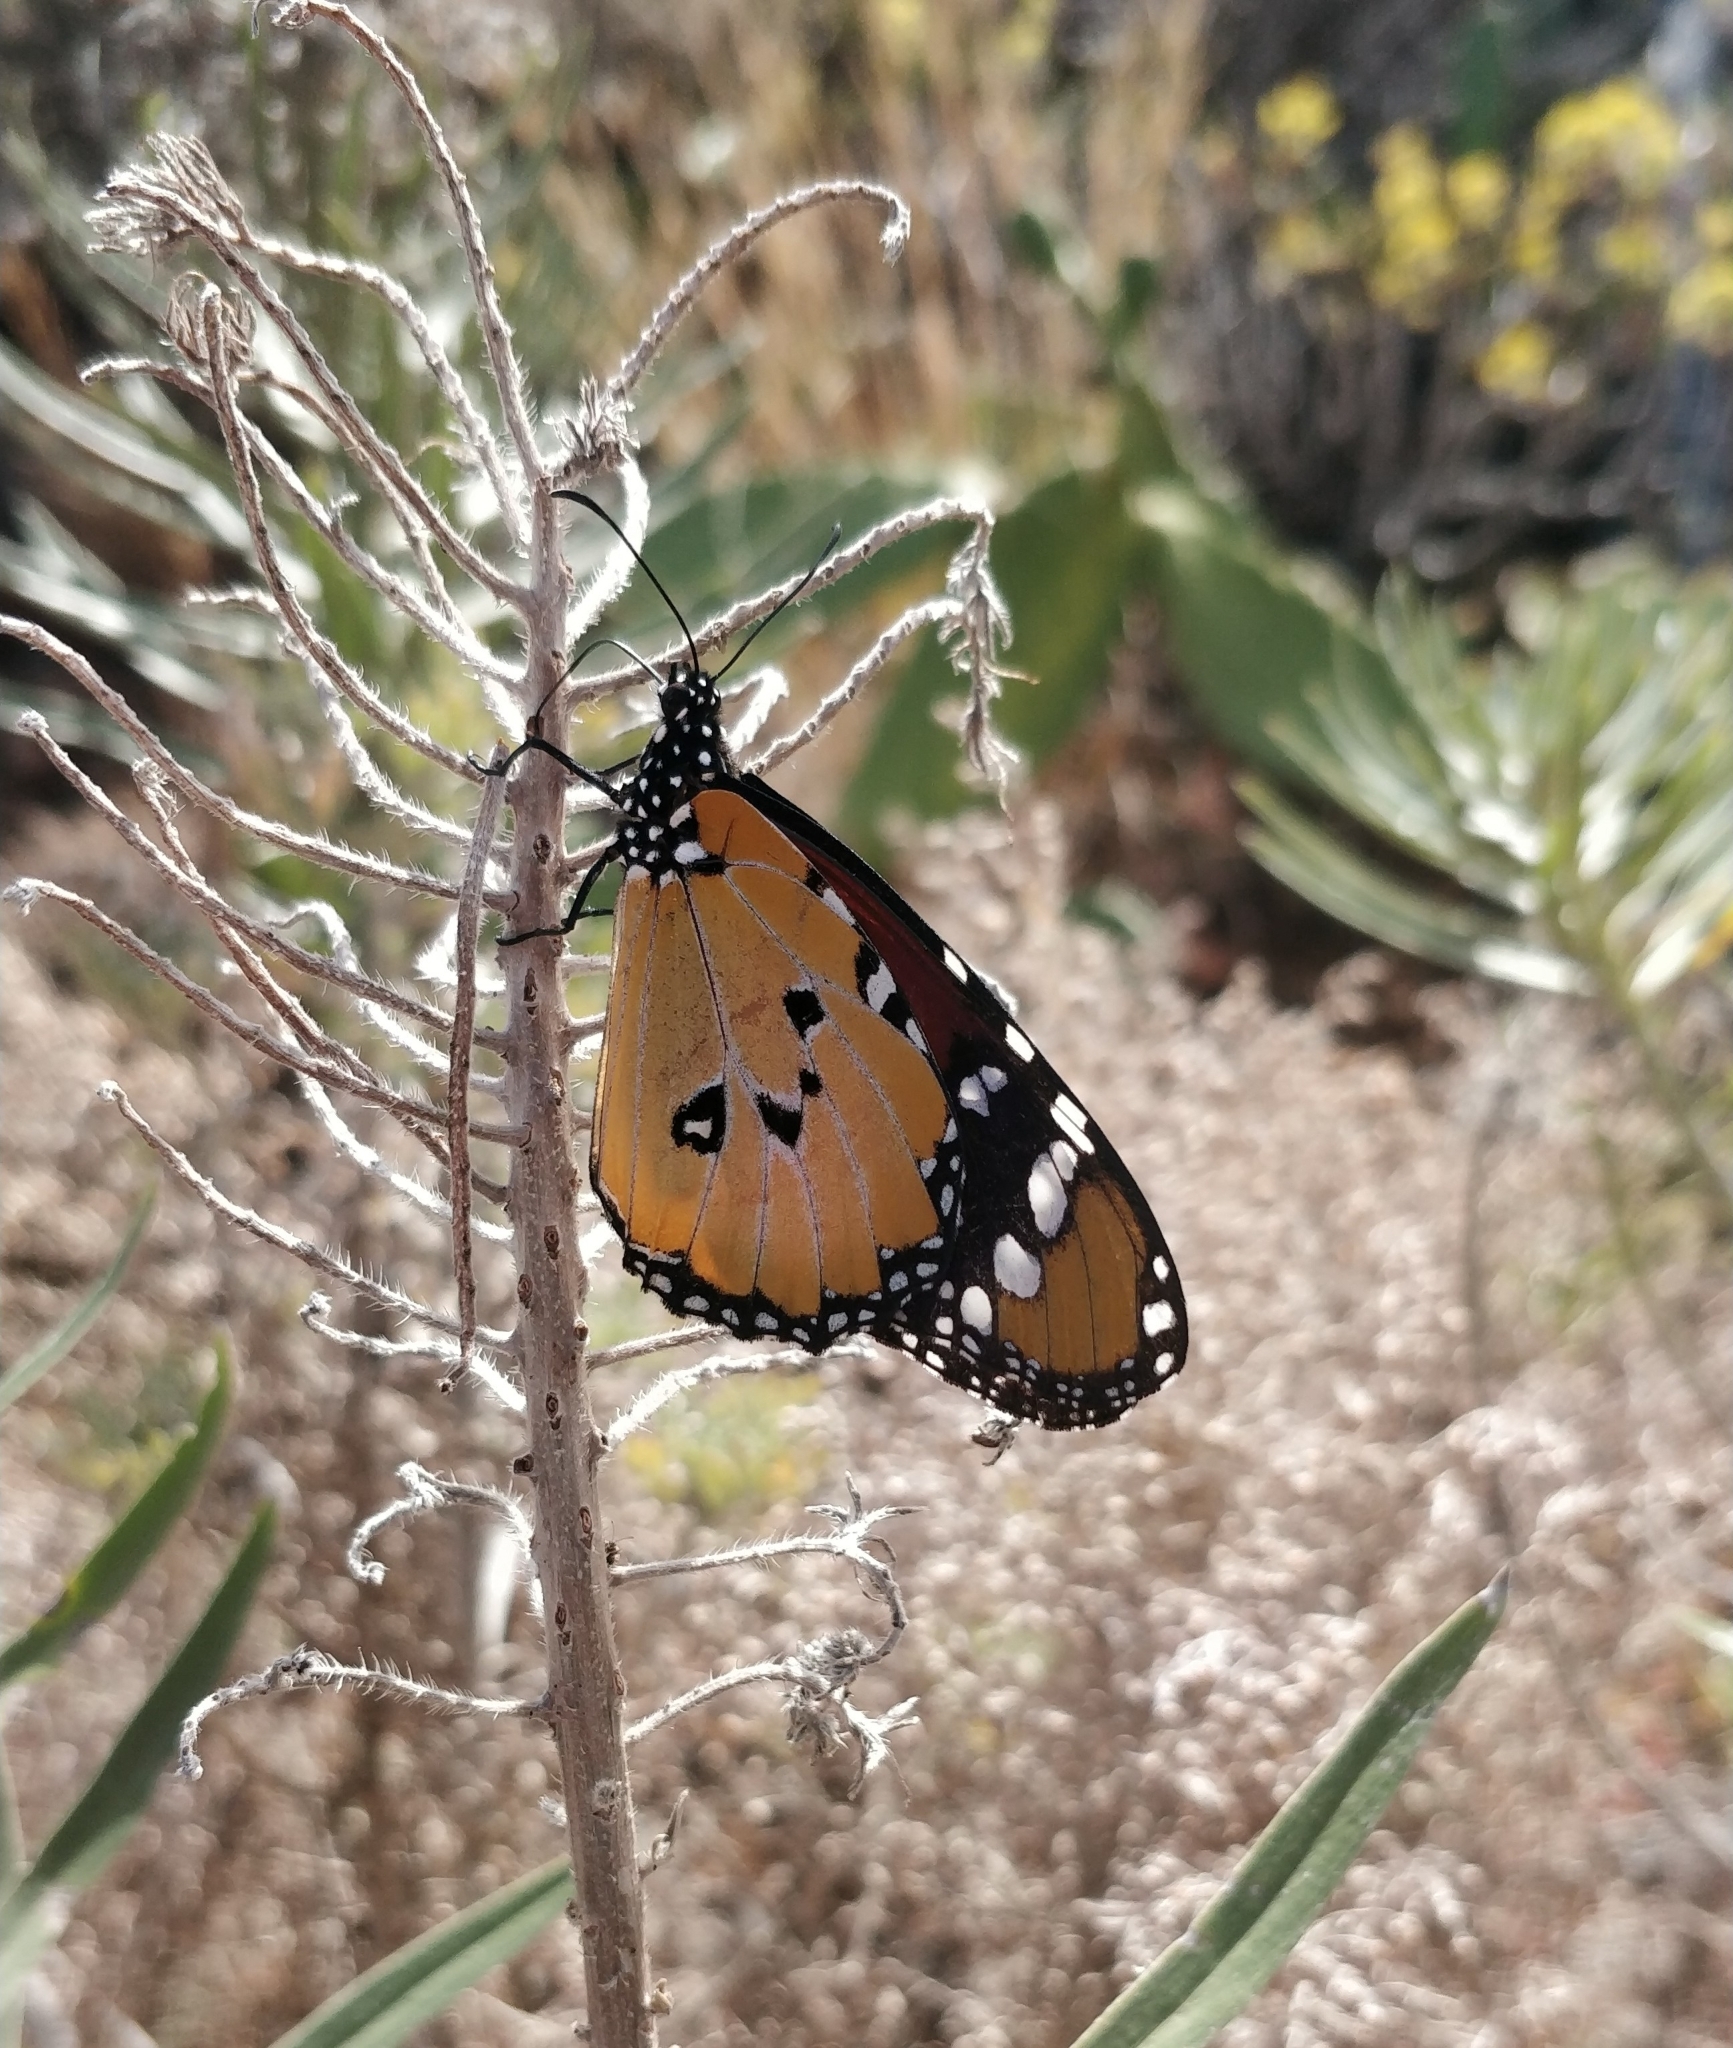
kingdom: Animalia
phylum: Arthropoda
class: Insecta
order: Lepidoptera
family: Nymphalidae
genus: Danaus
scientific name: Danaus chrysippus
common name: Plain tiger
